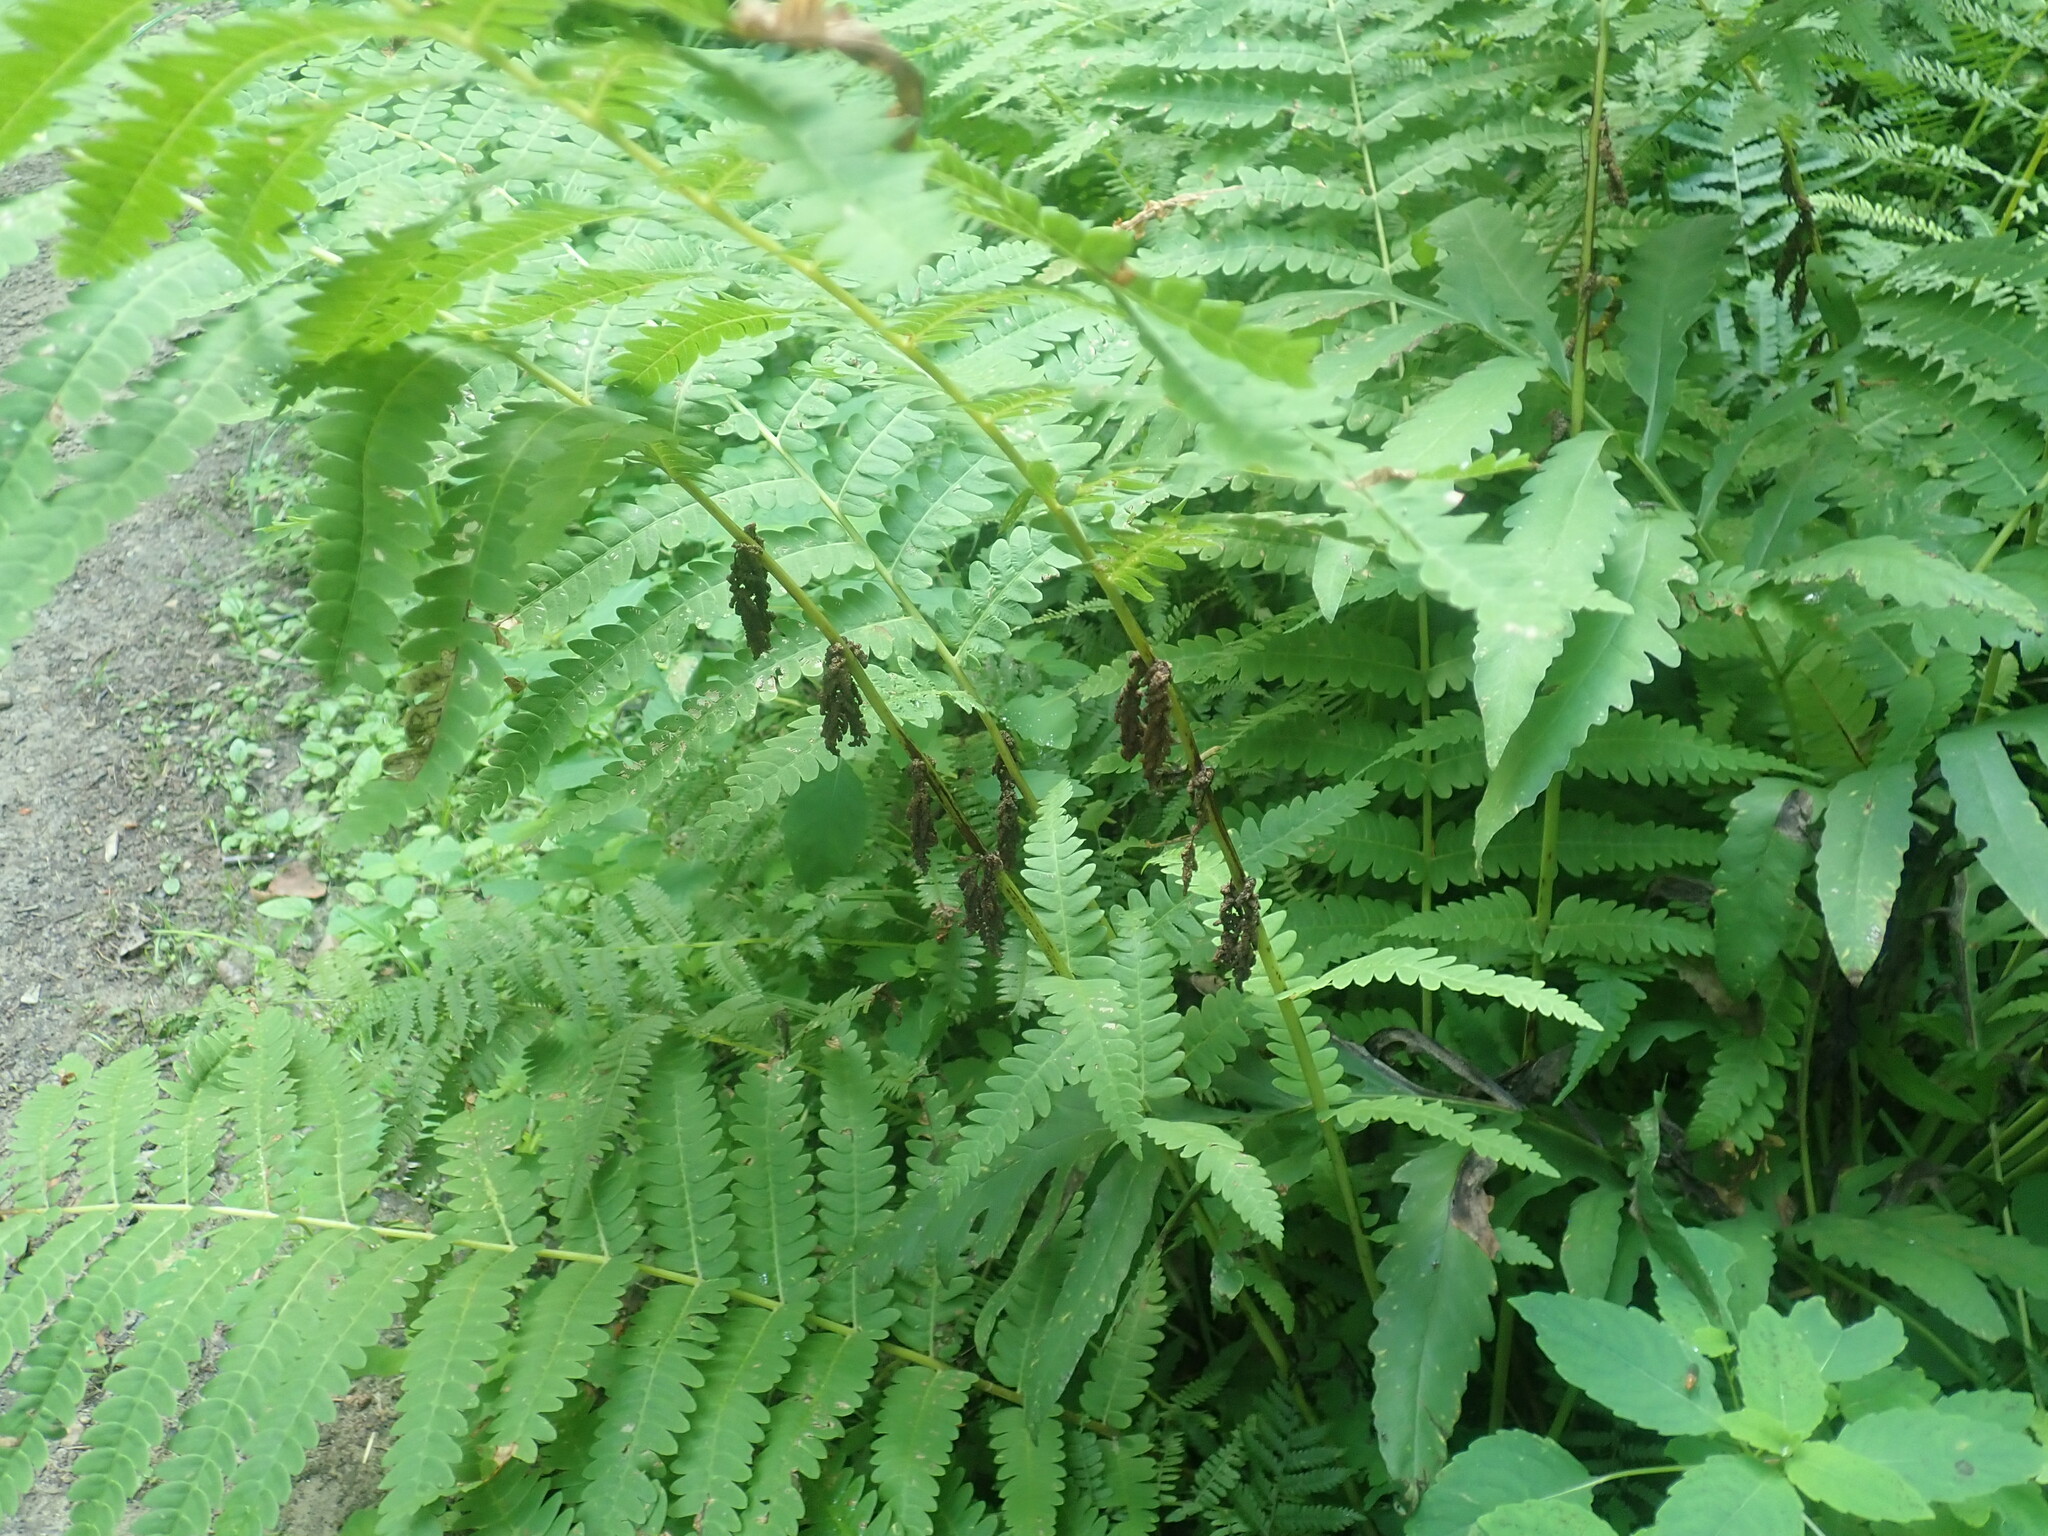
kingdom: Plantae
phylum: Tracheophyta
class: Polypodiopsida
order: Osmundales
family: Osmundaceae
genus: Claytosmunda
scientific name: Claytosmunda claytoniana
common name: Clayton's fern
